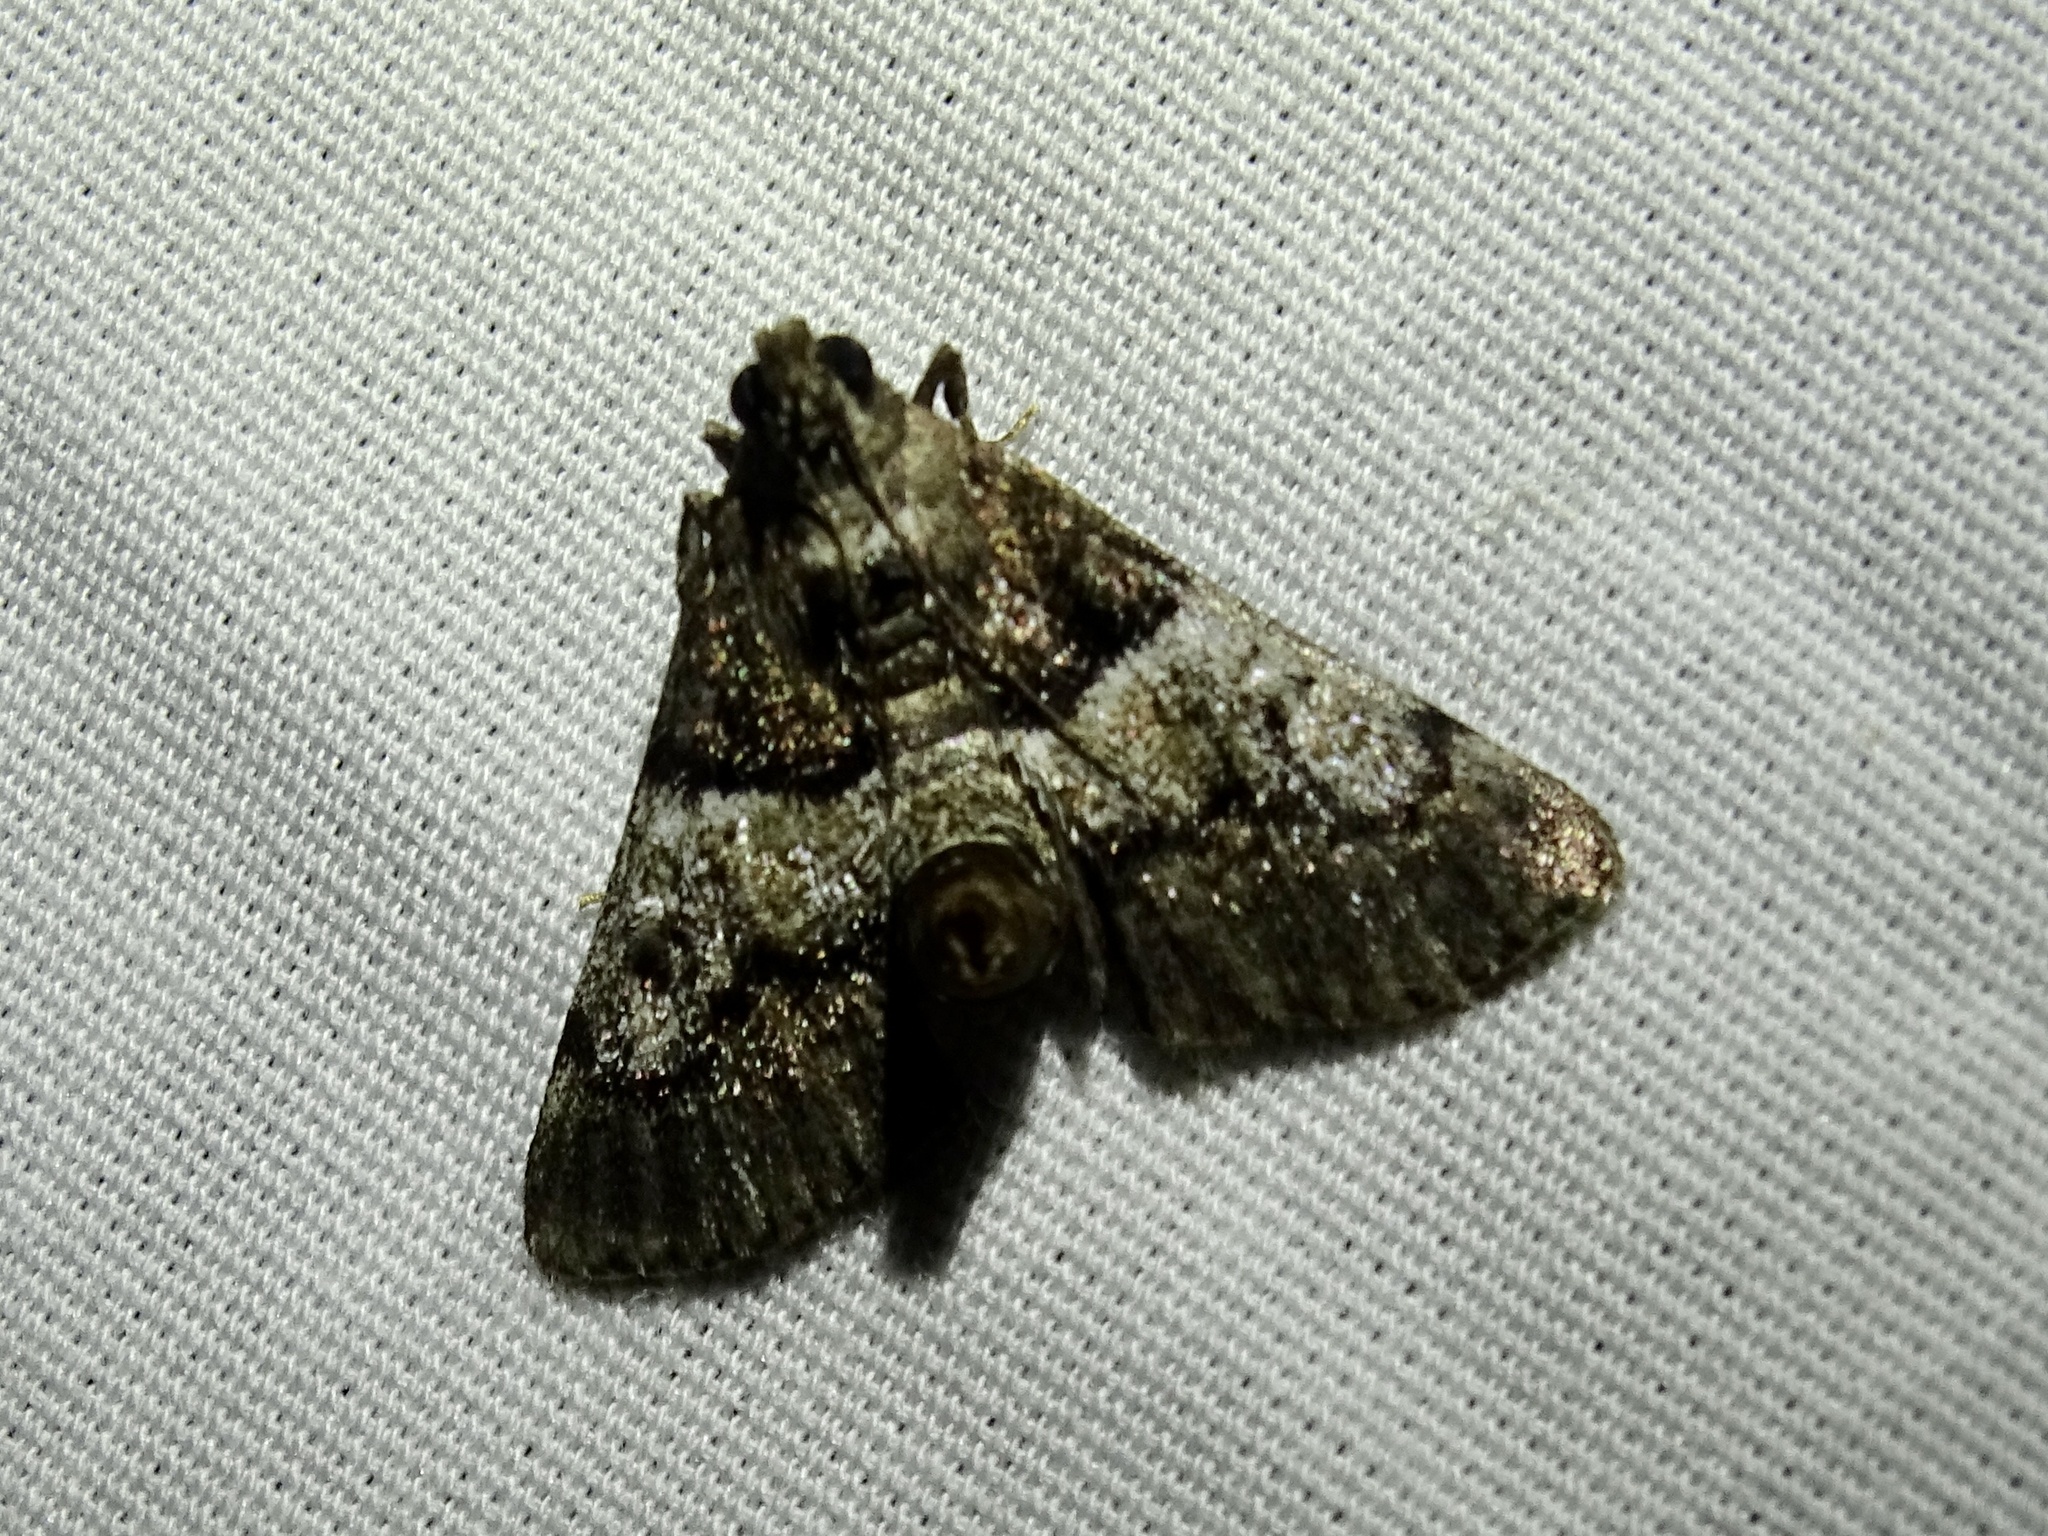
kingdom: Animalia
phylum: Arthropoda
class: Insecta
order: Lepidoptera
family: Pyralidae
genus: Macalla
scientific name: Macalla zelleri
